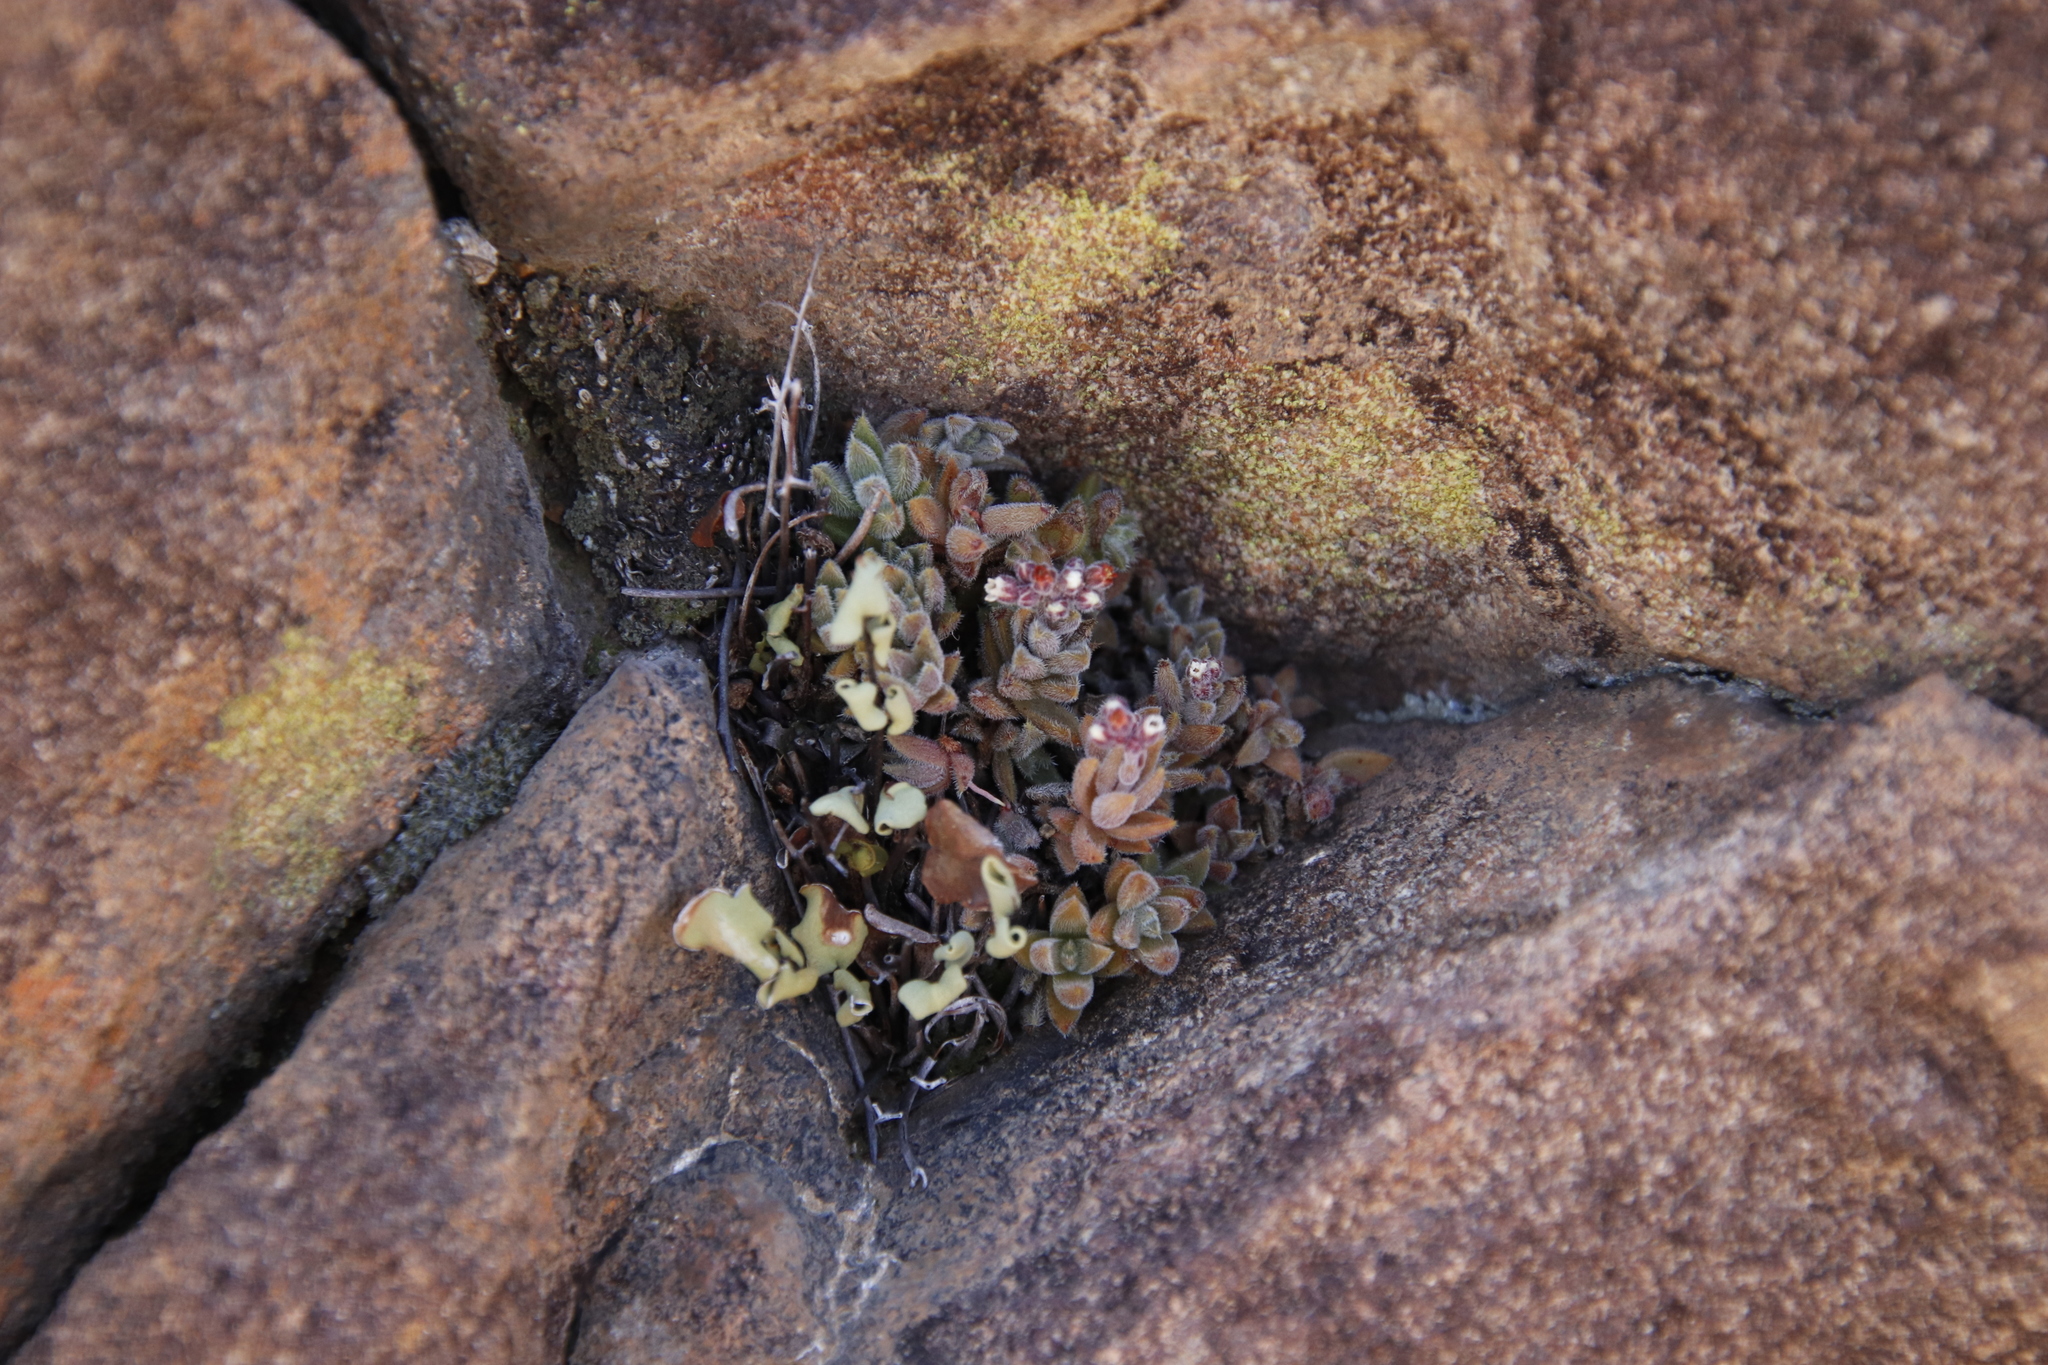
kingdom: Plantae
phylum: Tracheophyta
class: Magnoliopsida
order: Saxifragales
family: Crassulaceae
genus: Crassula
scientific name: Crassula lanuginosa
